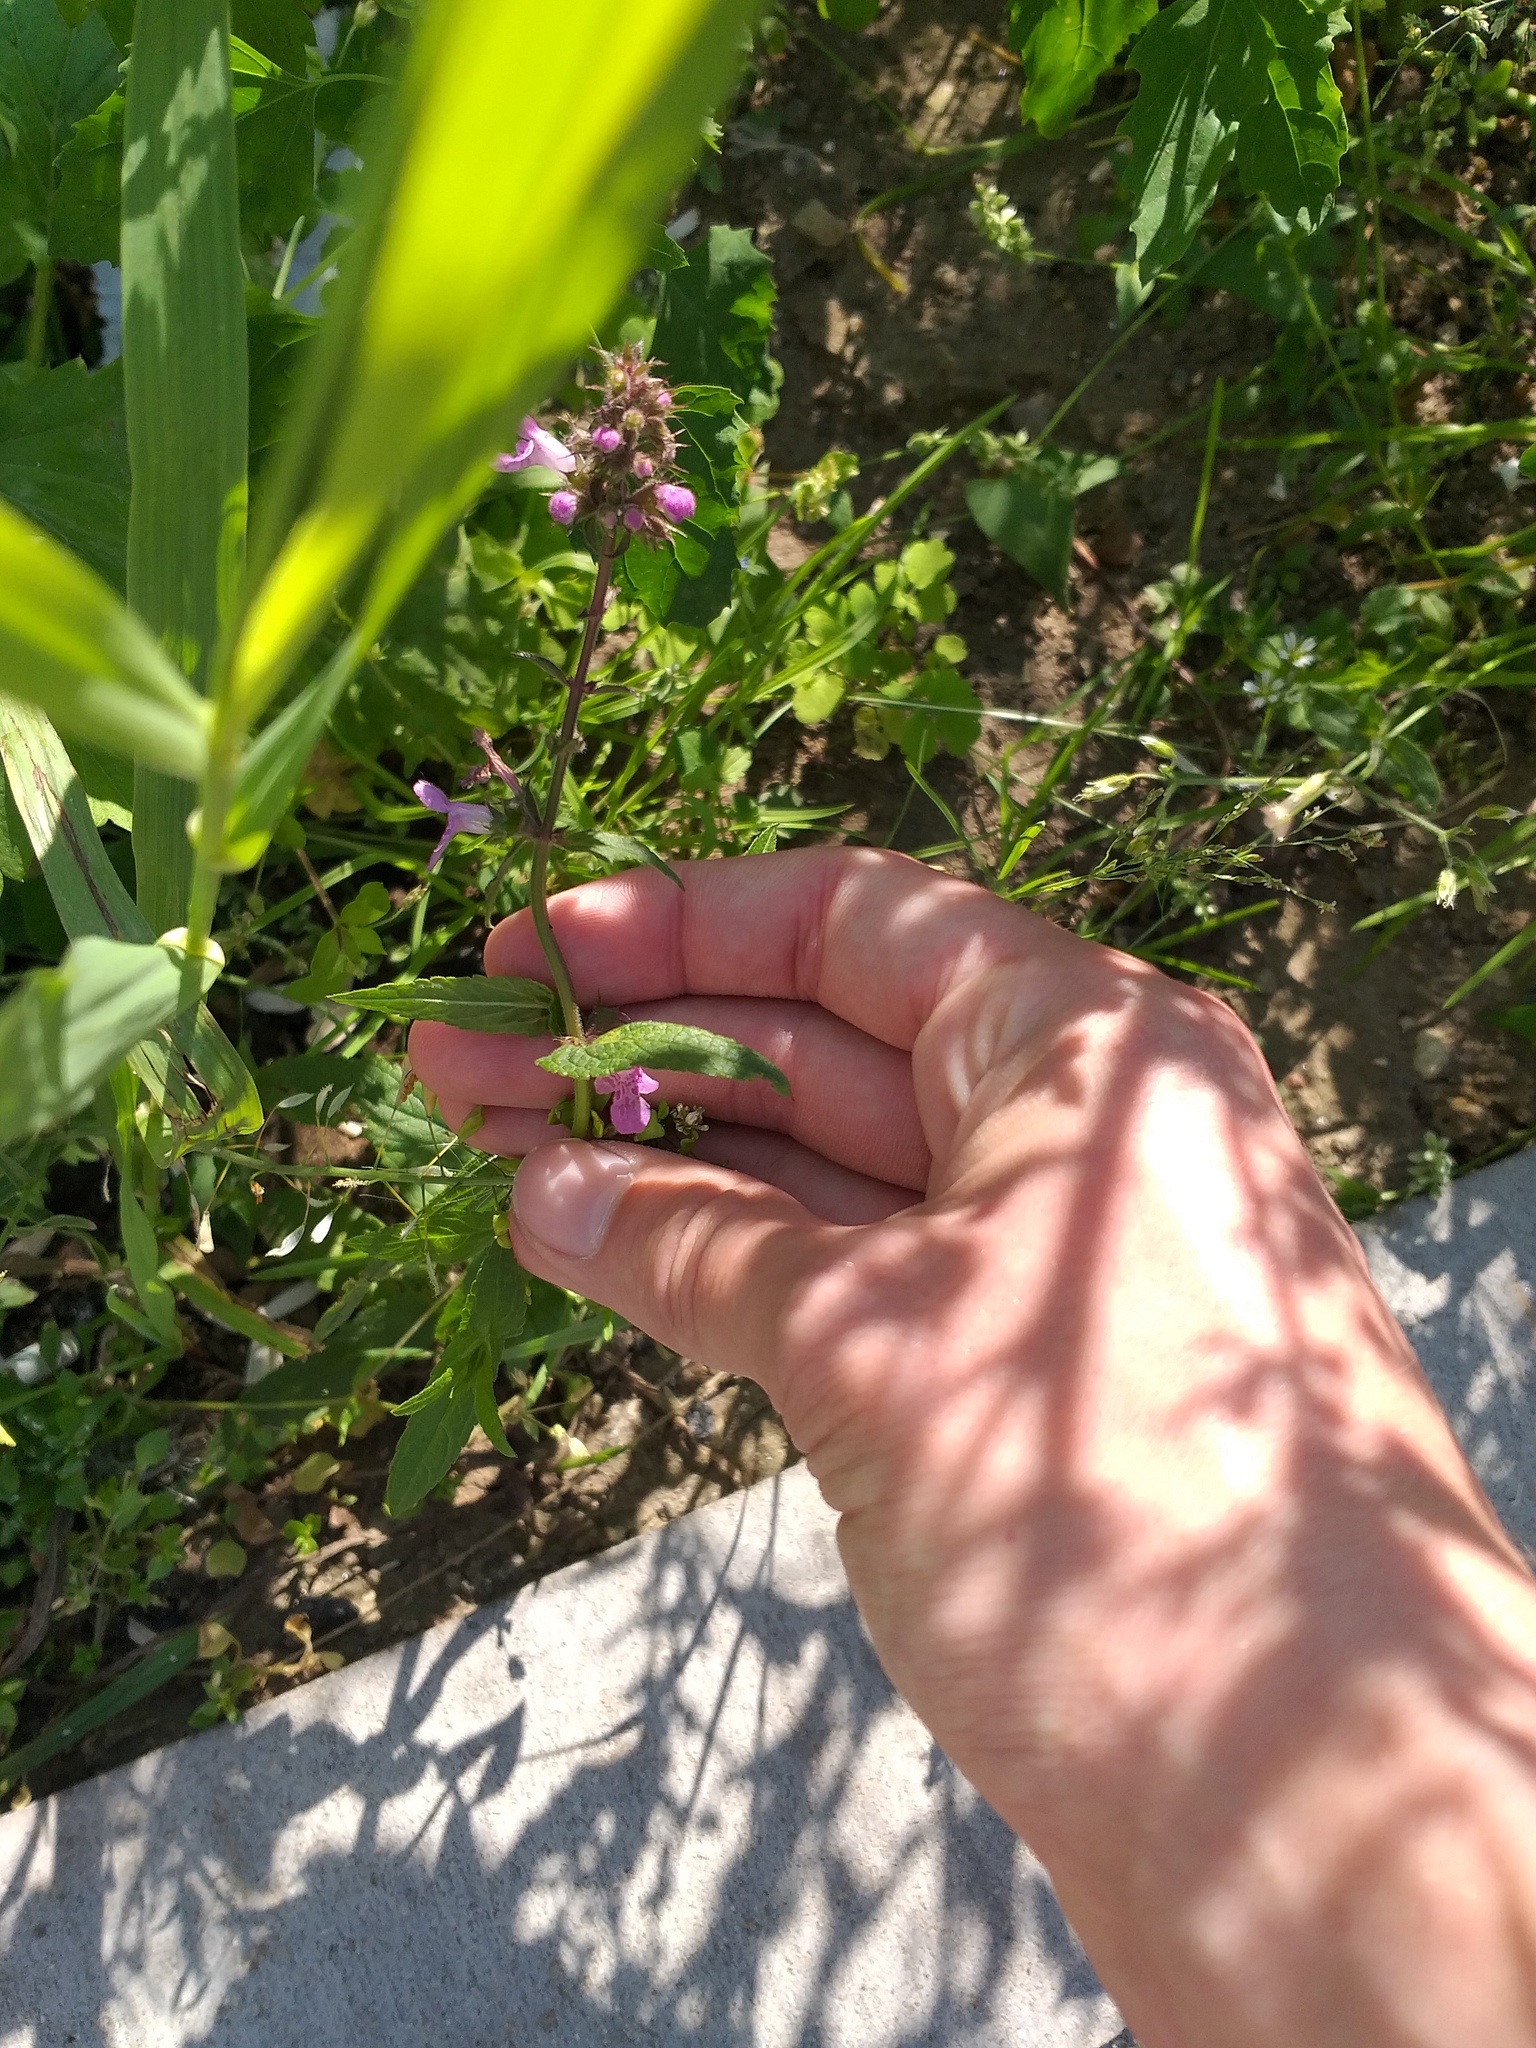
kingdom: Plantae
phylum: Tracheophyta
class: Magnoliopsida
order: Lamiales
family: Lamiaceae
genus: Stachys
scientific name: Stachys palustris
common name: Marsh woundwort
